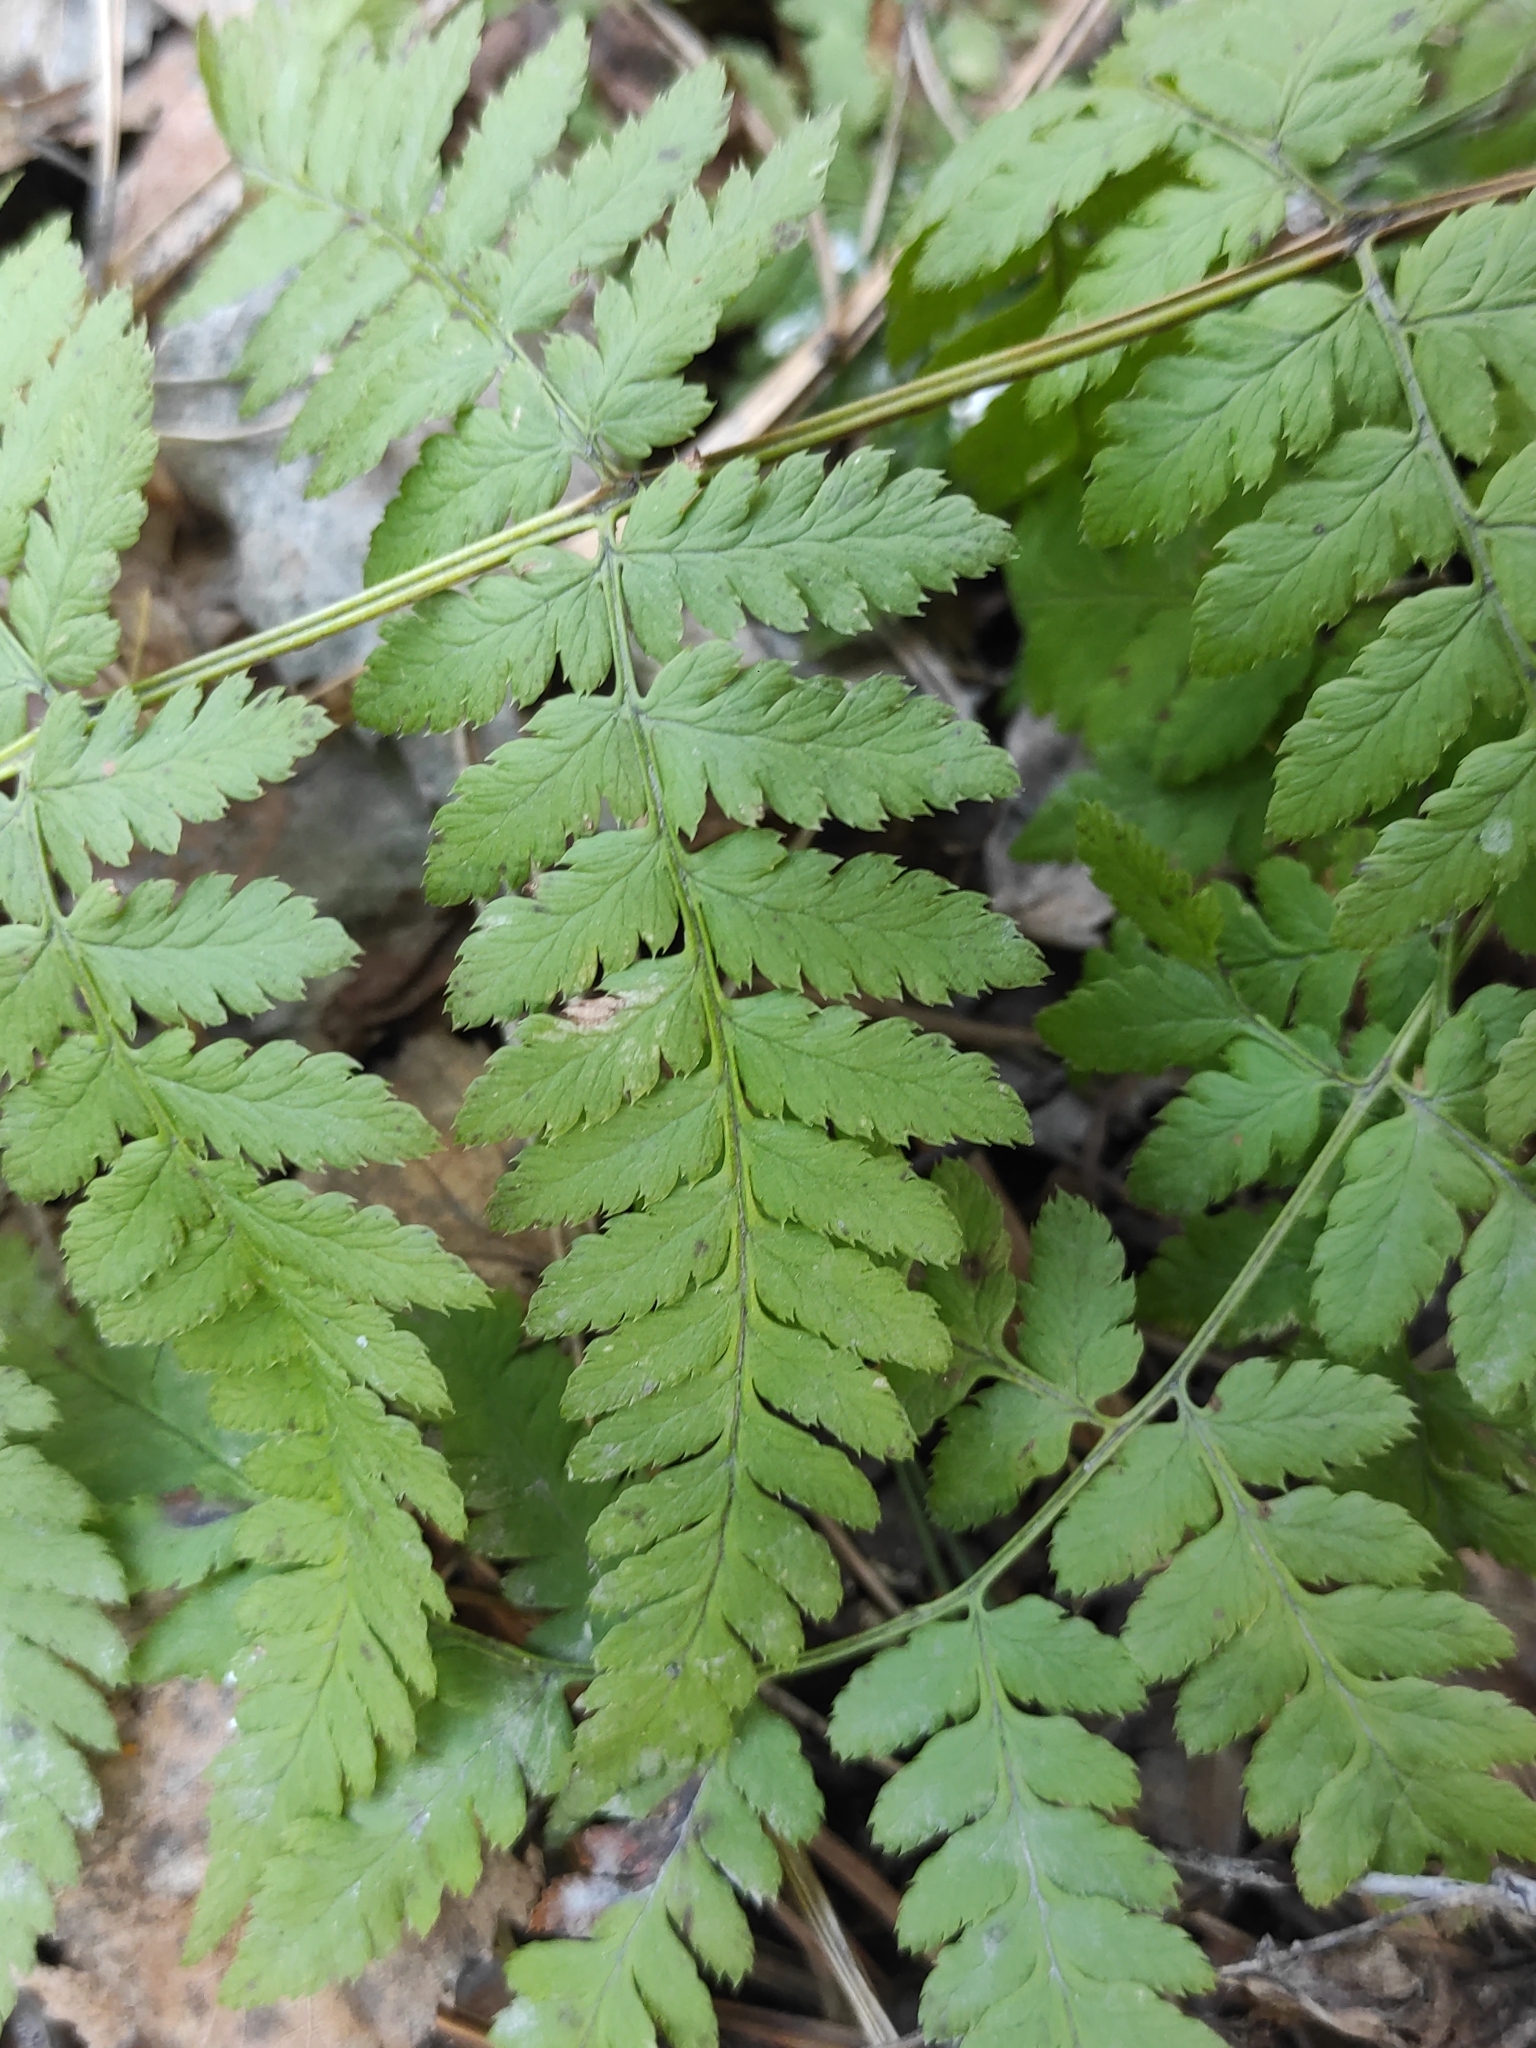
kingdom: Plantae
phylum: Tracheophyta
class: Polypodiopsida
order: Polypodiales
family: Dryopteridaceae
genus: Dryopteris
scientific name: Dryopteris carthusiana
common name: Narrow buckler-fern
